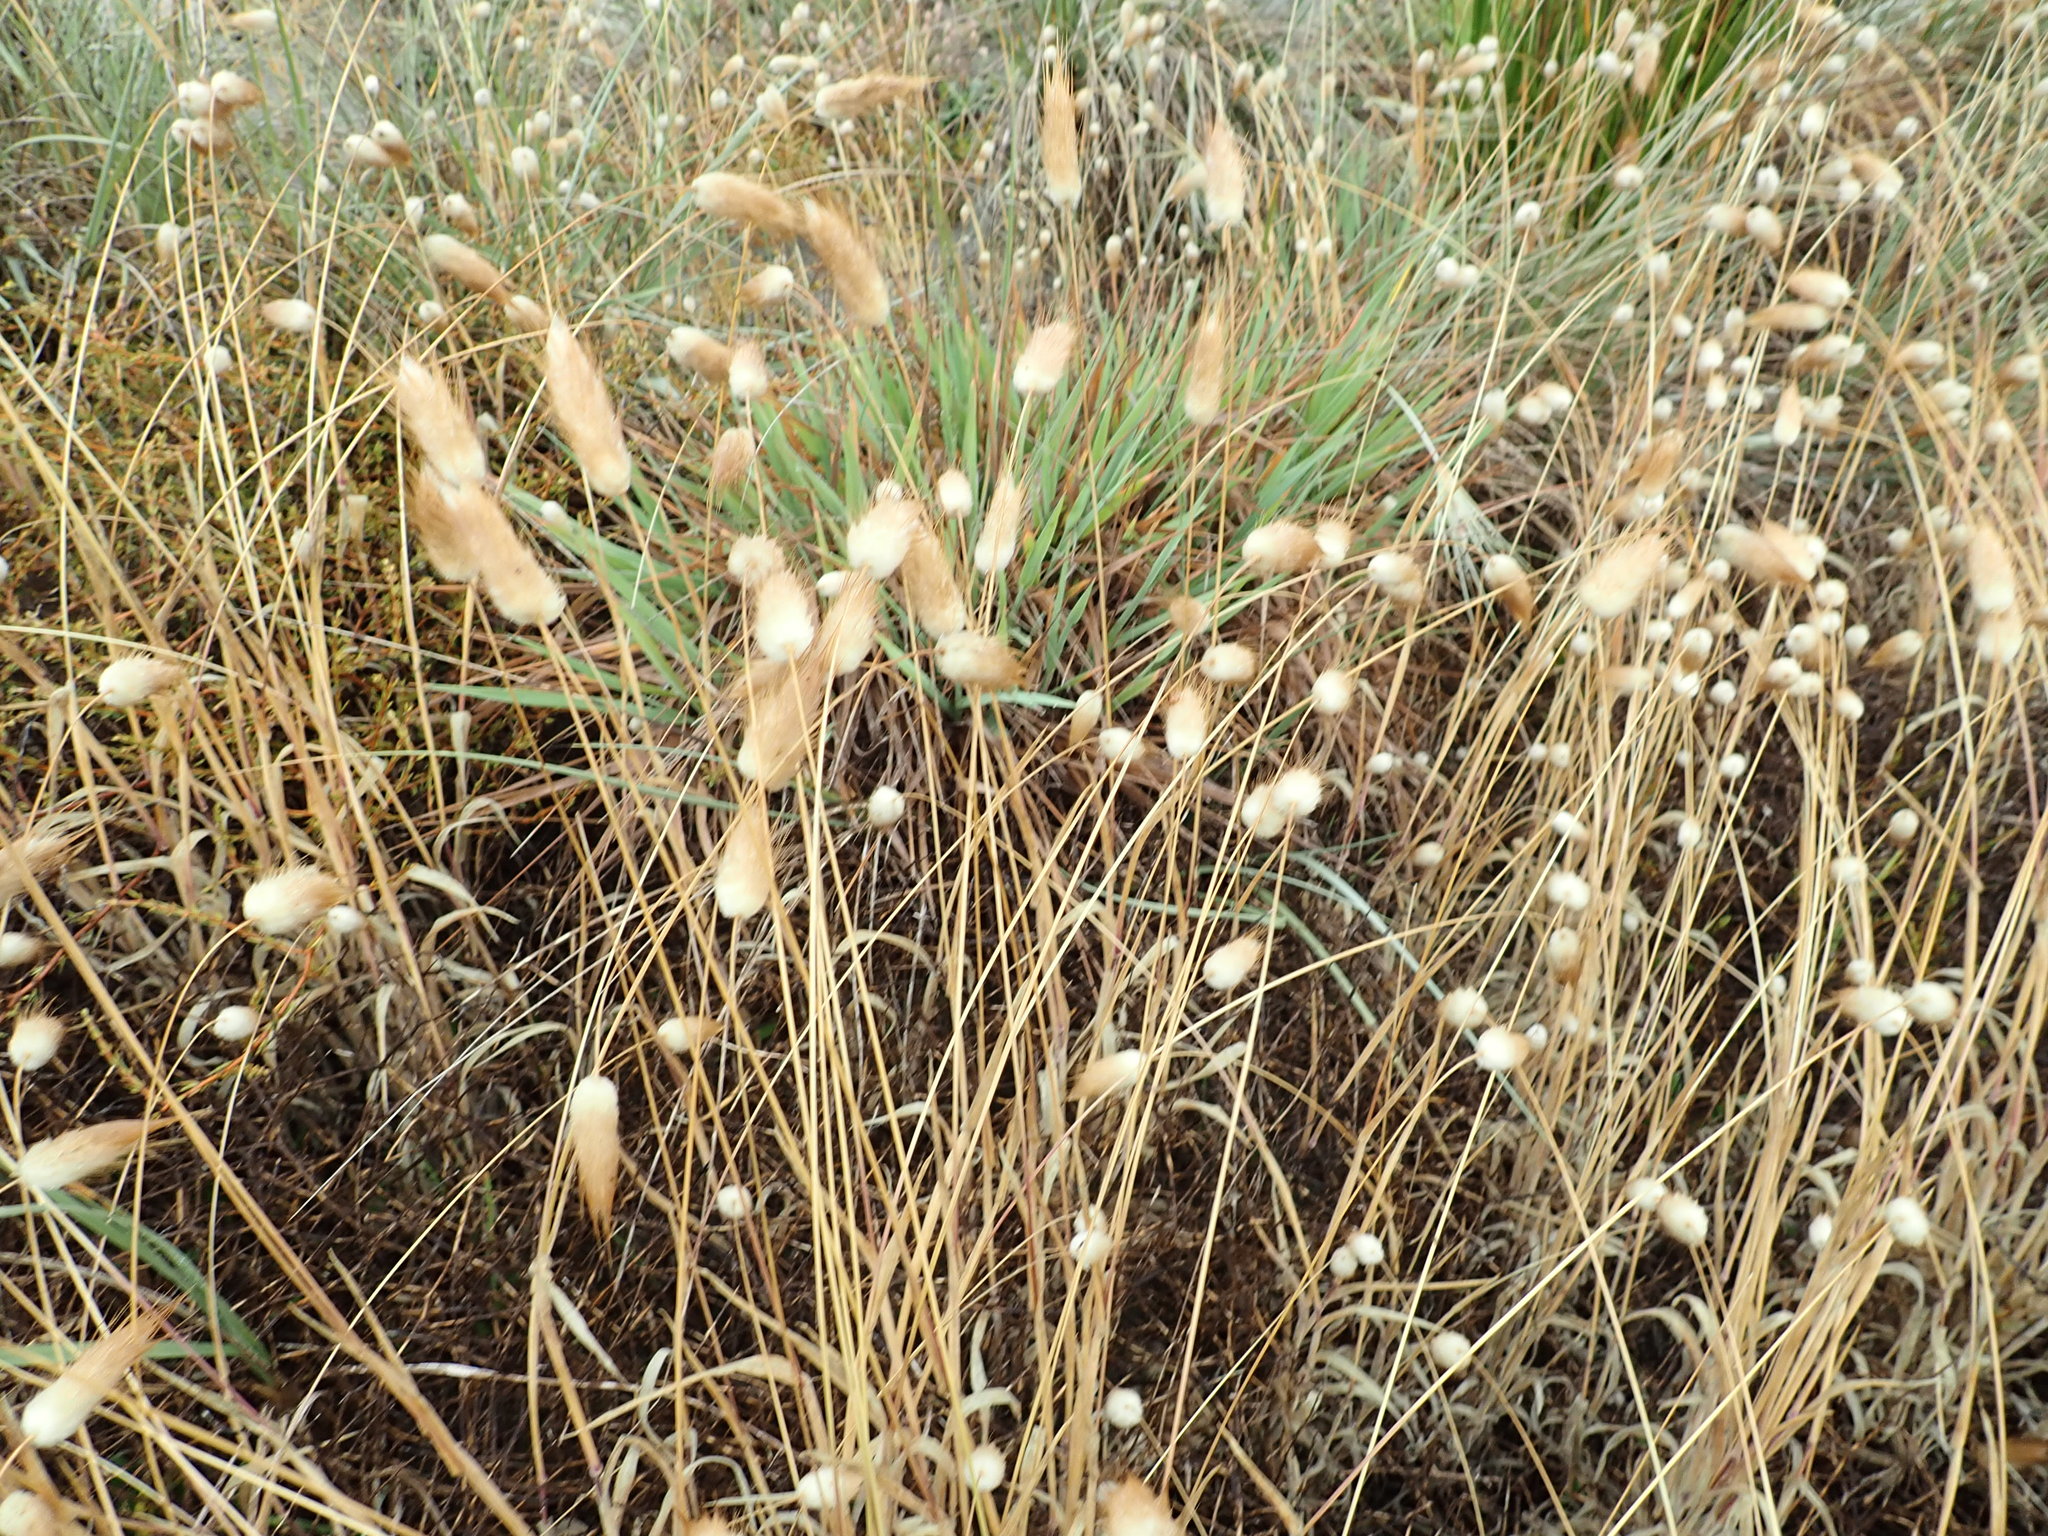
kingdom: Plantae
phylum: Tracheophyta
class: Liliopsida
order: Poales
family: Poaceae
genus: Lagurus
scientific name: Lagurus ovatus
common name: Hare's-tail
